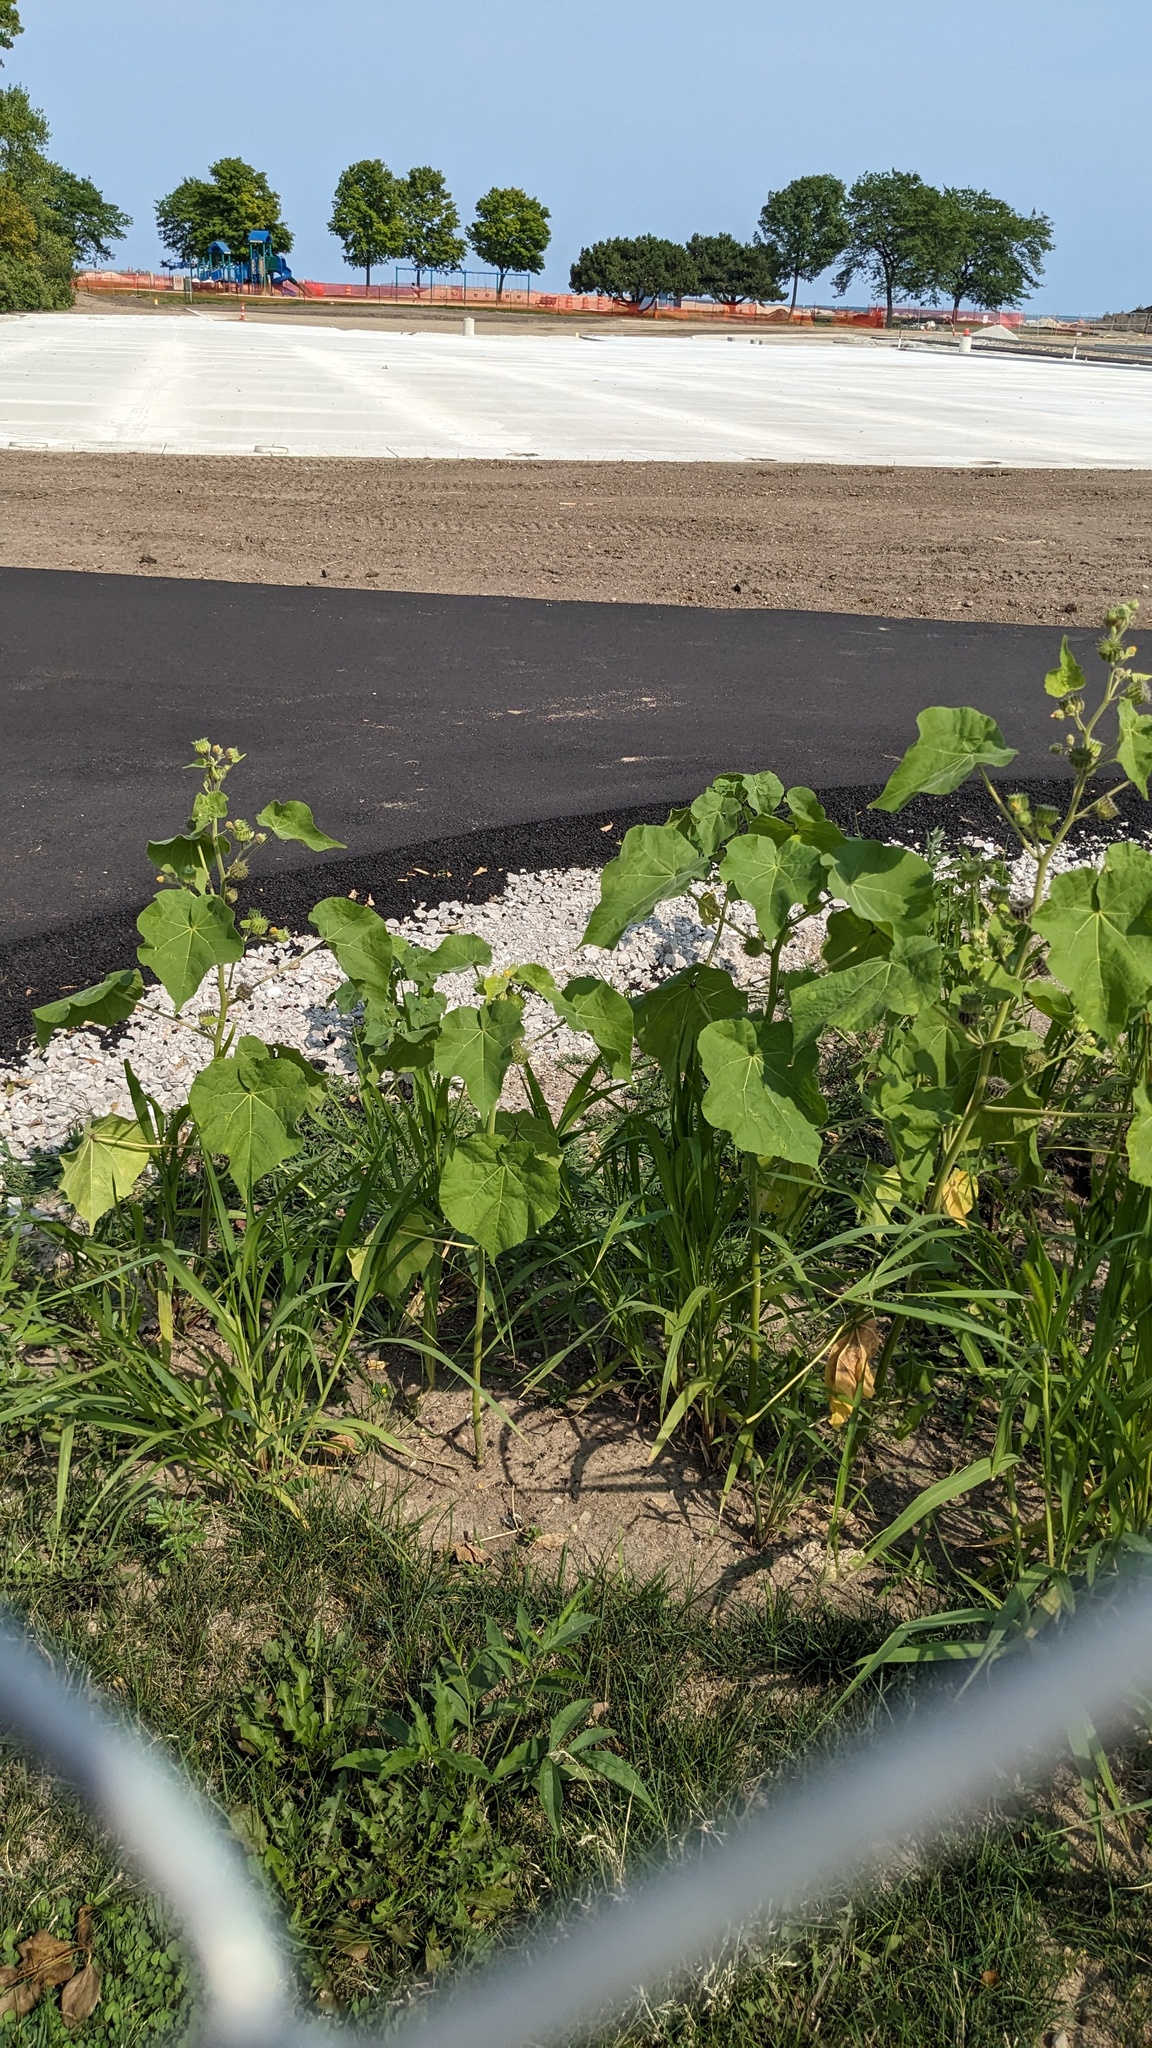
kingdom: Plantae
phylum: Tracheophyta
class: Magnoliopsida
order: Malvales
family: Malvaceae
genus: Abutilon
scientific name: Abutilon theophrasti
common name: Velvetleaf
